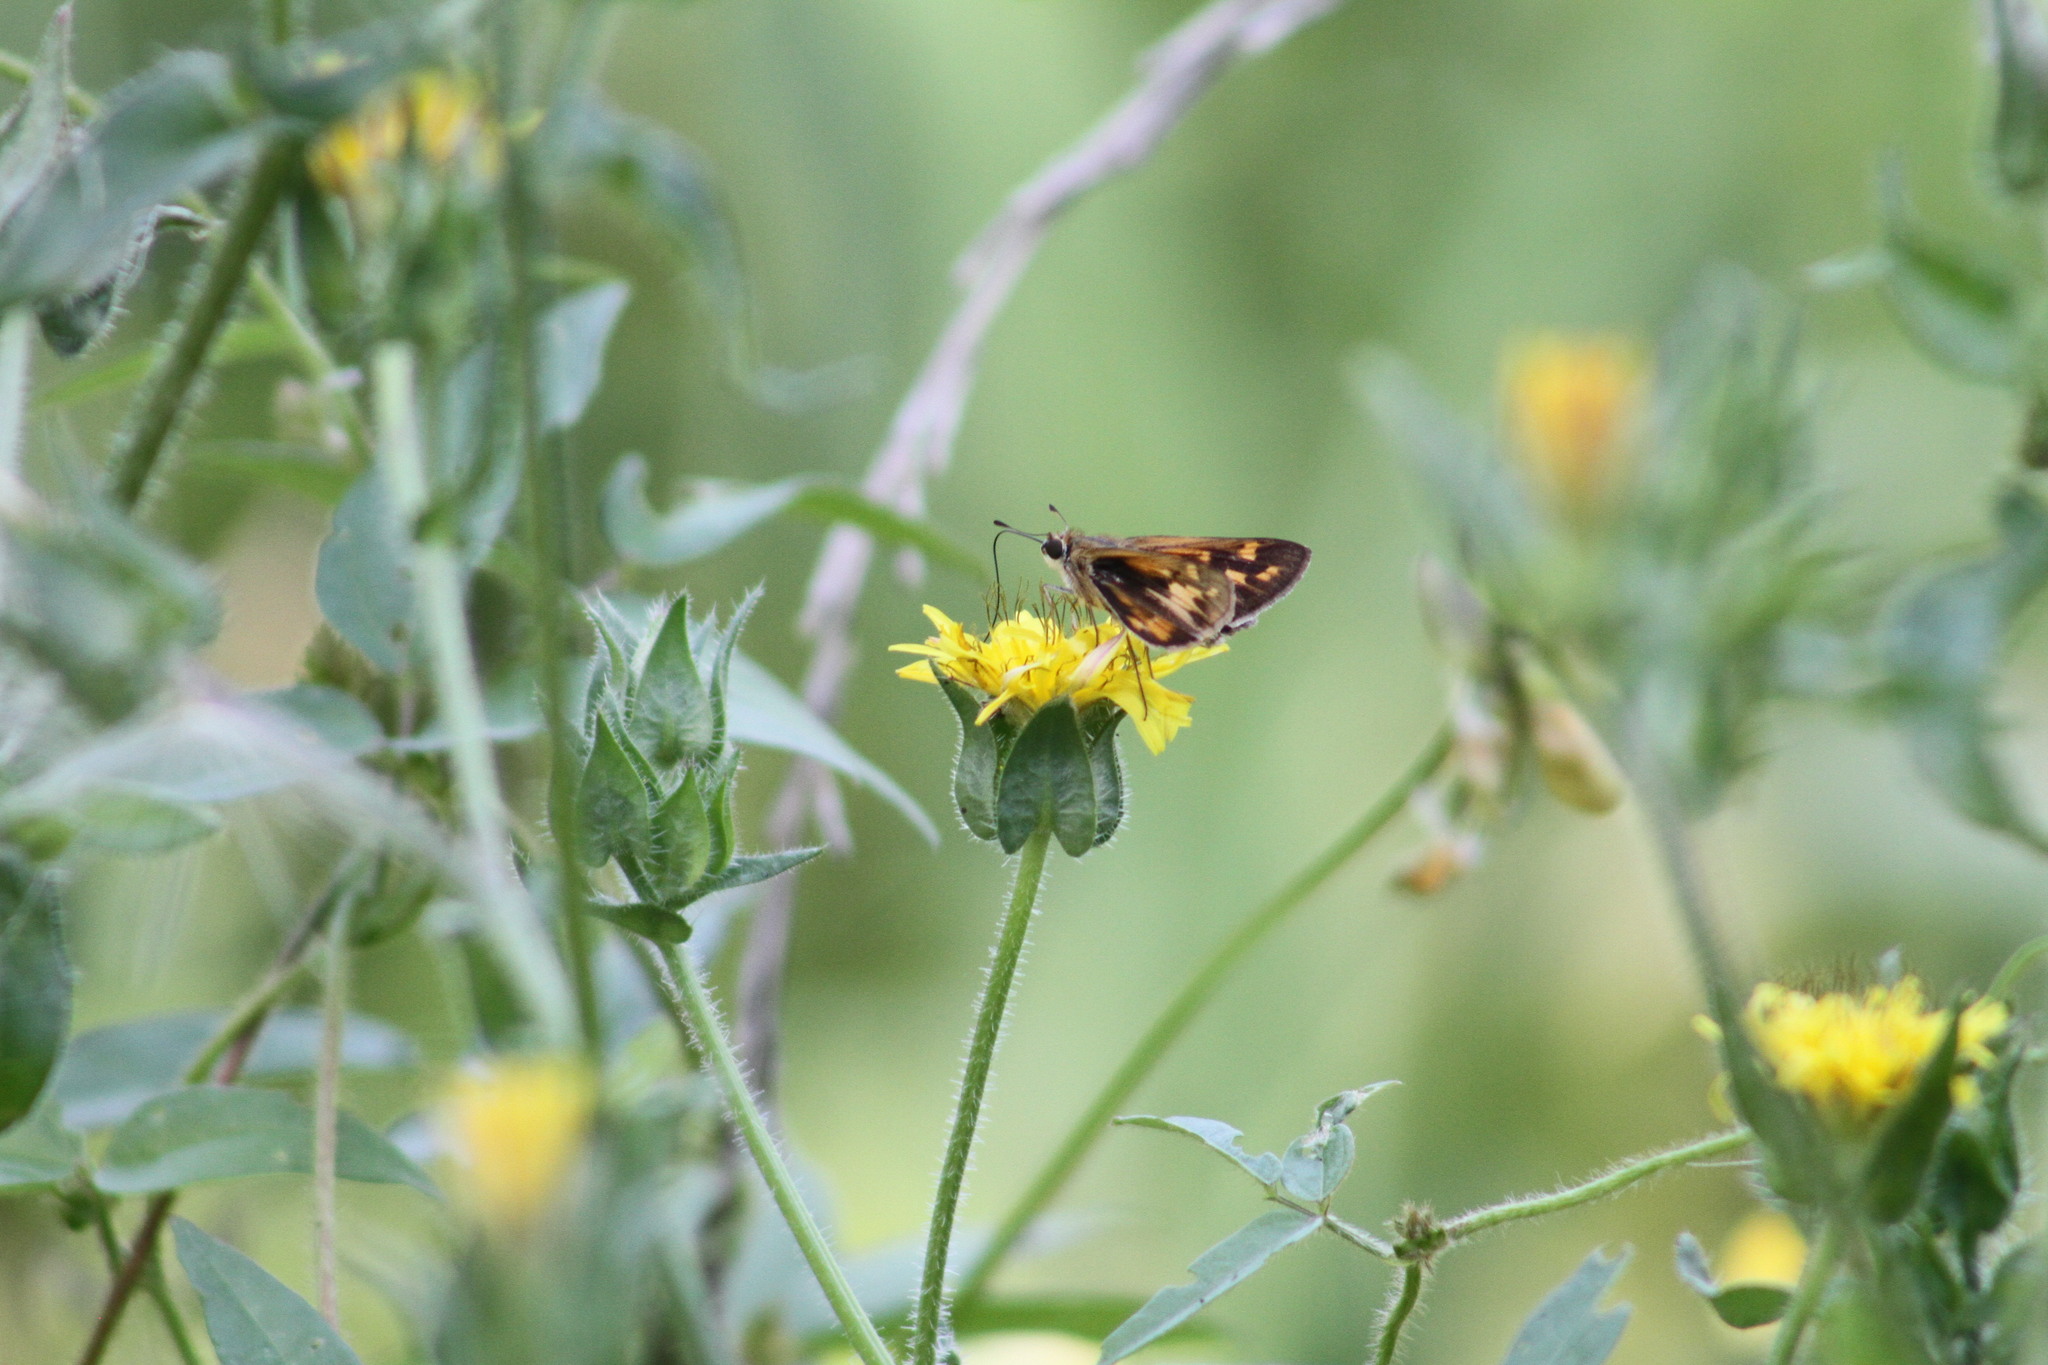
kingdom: Animalia
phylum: Arthropoda
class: Insecta
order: Lepidoptera
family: Hesperiidae
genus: Hylephila
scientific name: Hylephila phyleus
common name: Fiery skipper
